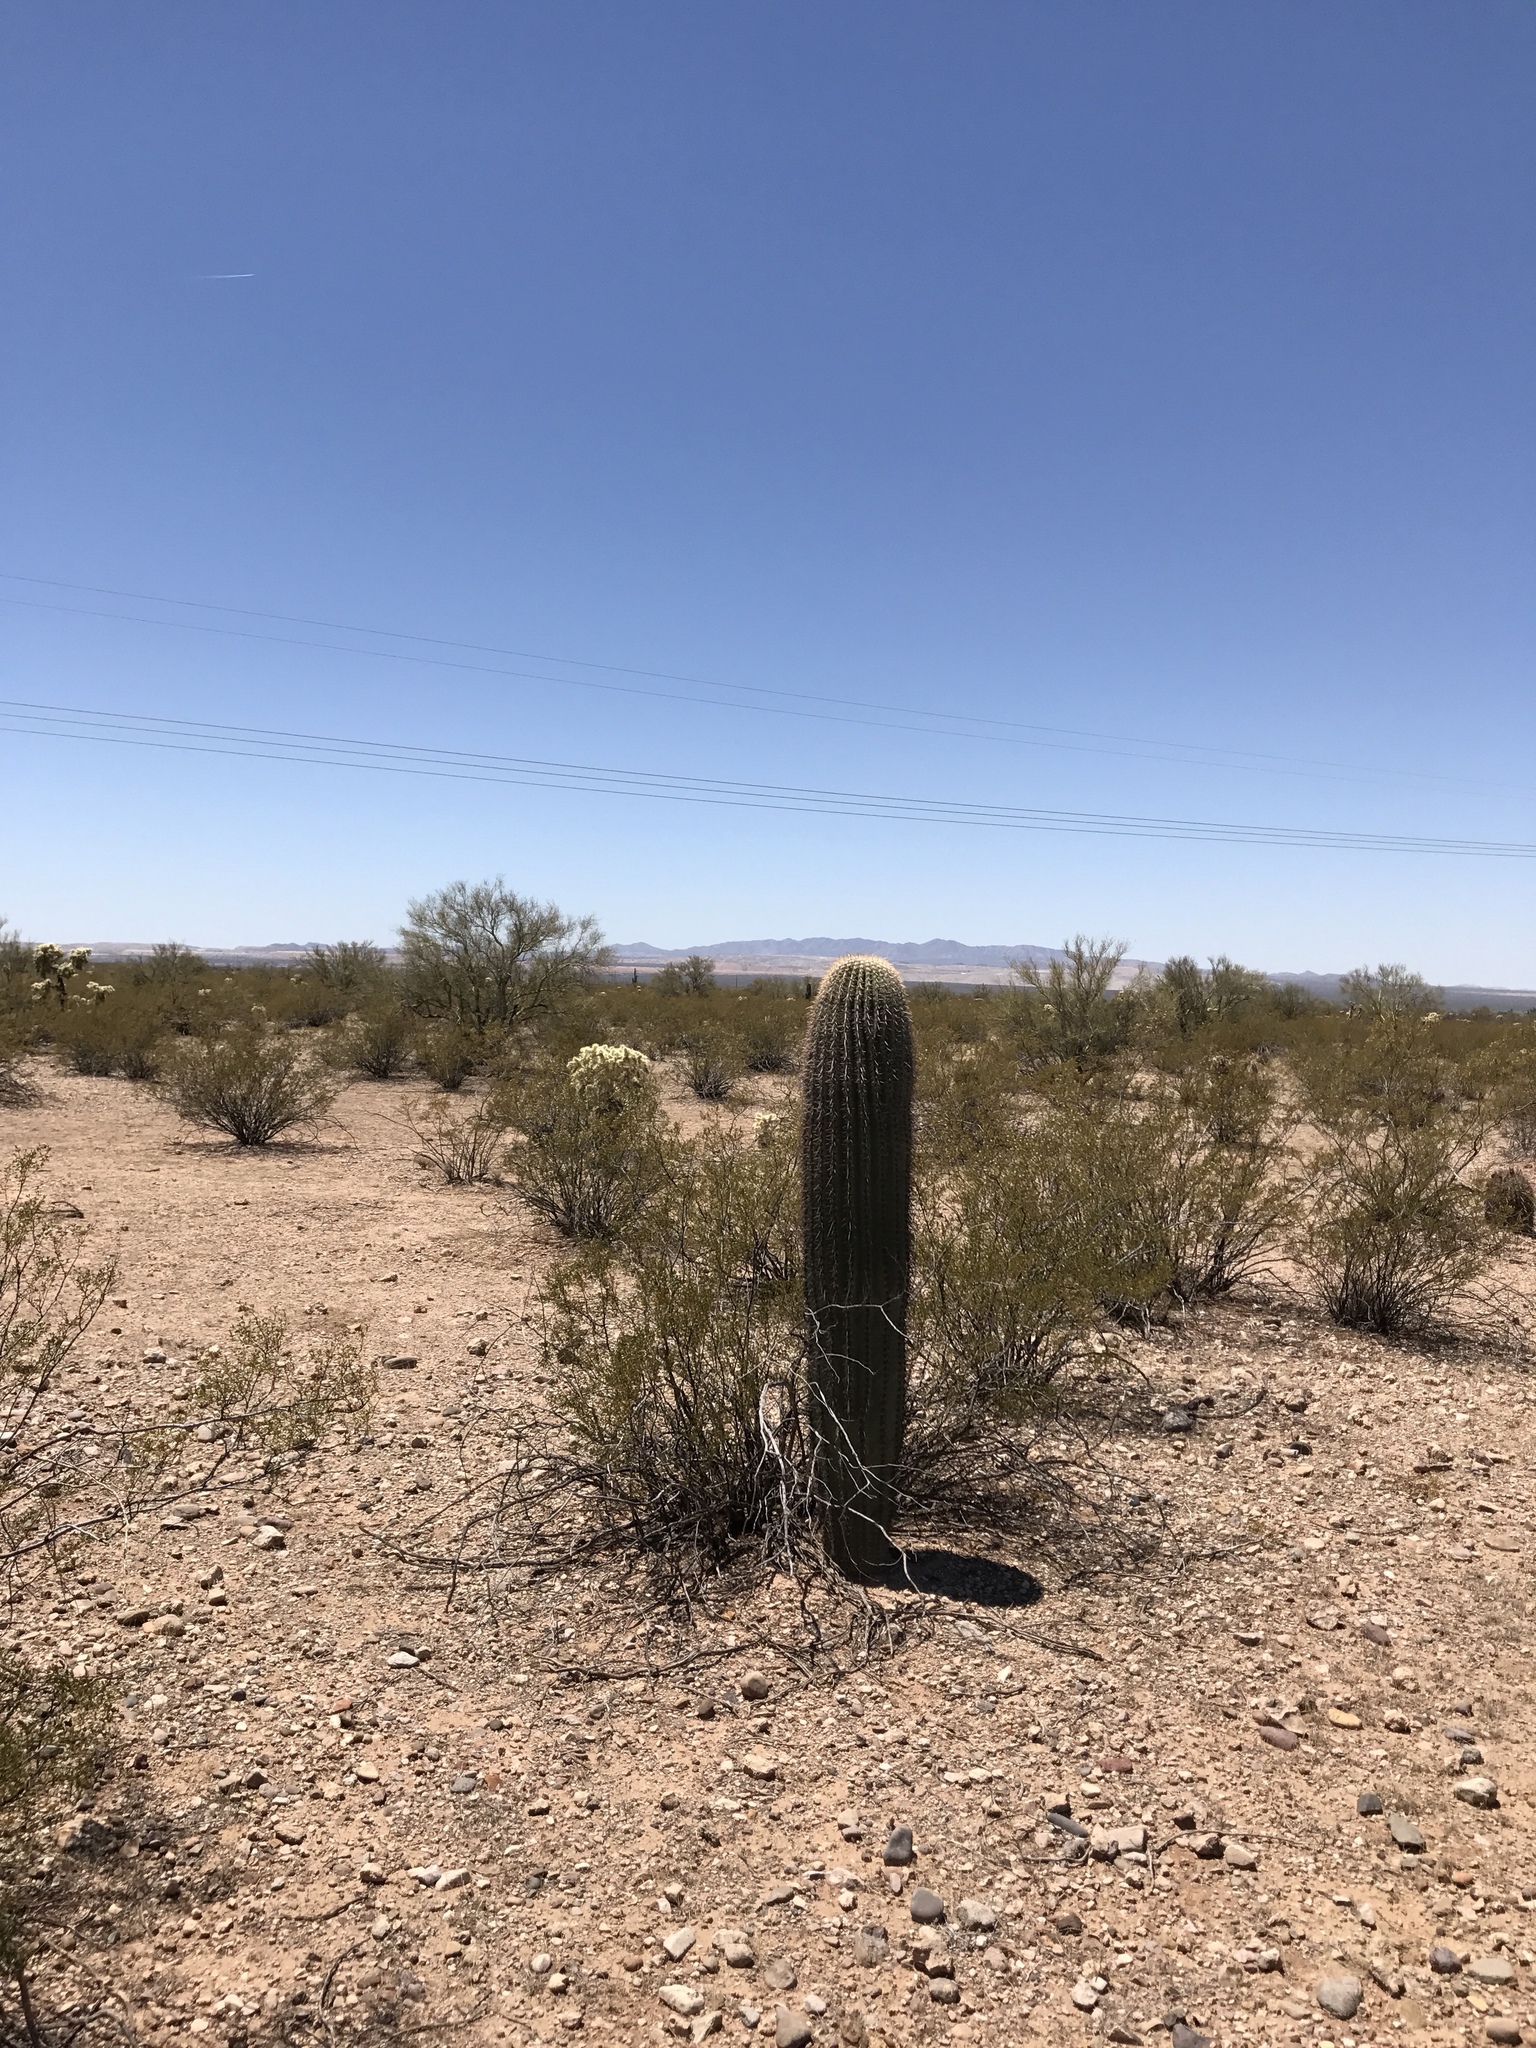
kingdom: Plantae
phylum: Tracheophyta
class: Magnoliopsida
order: Caryophyllales
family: Cactaceae
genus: Carnegiea
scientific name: Carnegiea gigantea
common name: Saguaro
